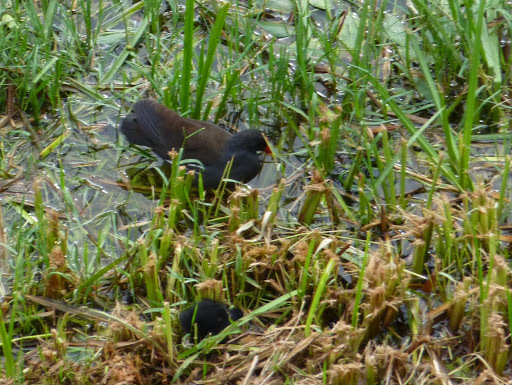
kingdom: Animalia
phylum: Chordata
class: Aves
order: Gruiformes
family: Rallidae
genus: Gallinula
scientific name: Gallinula chloropus
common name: Common moorhen
